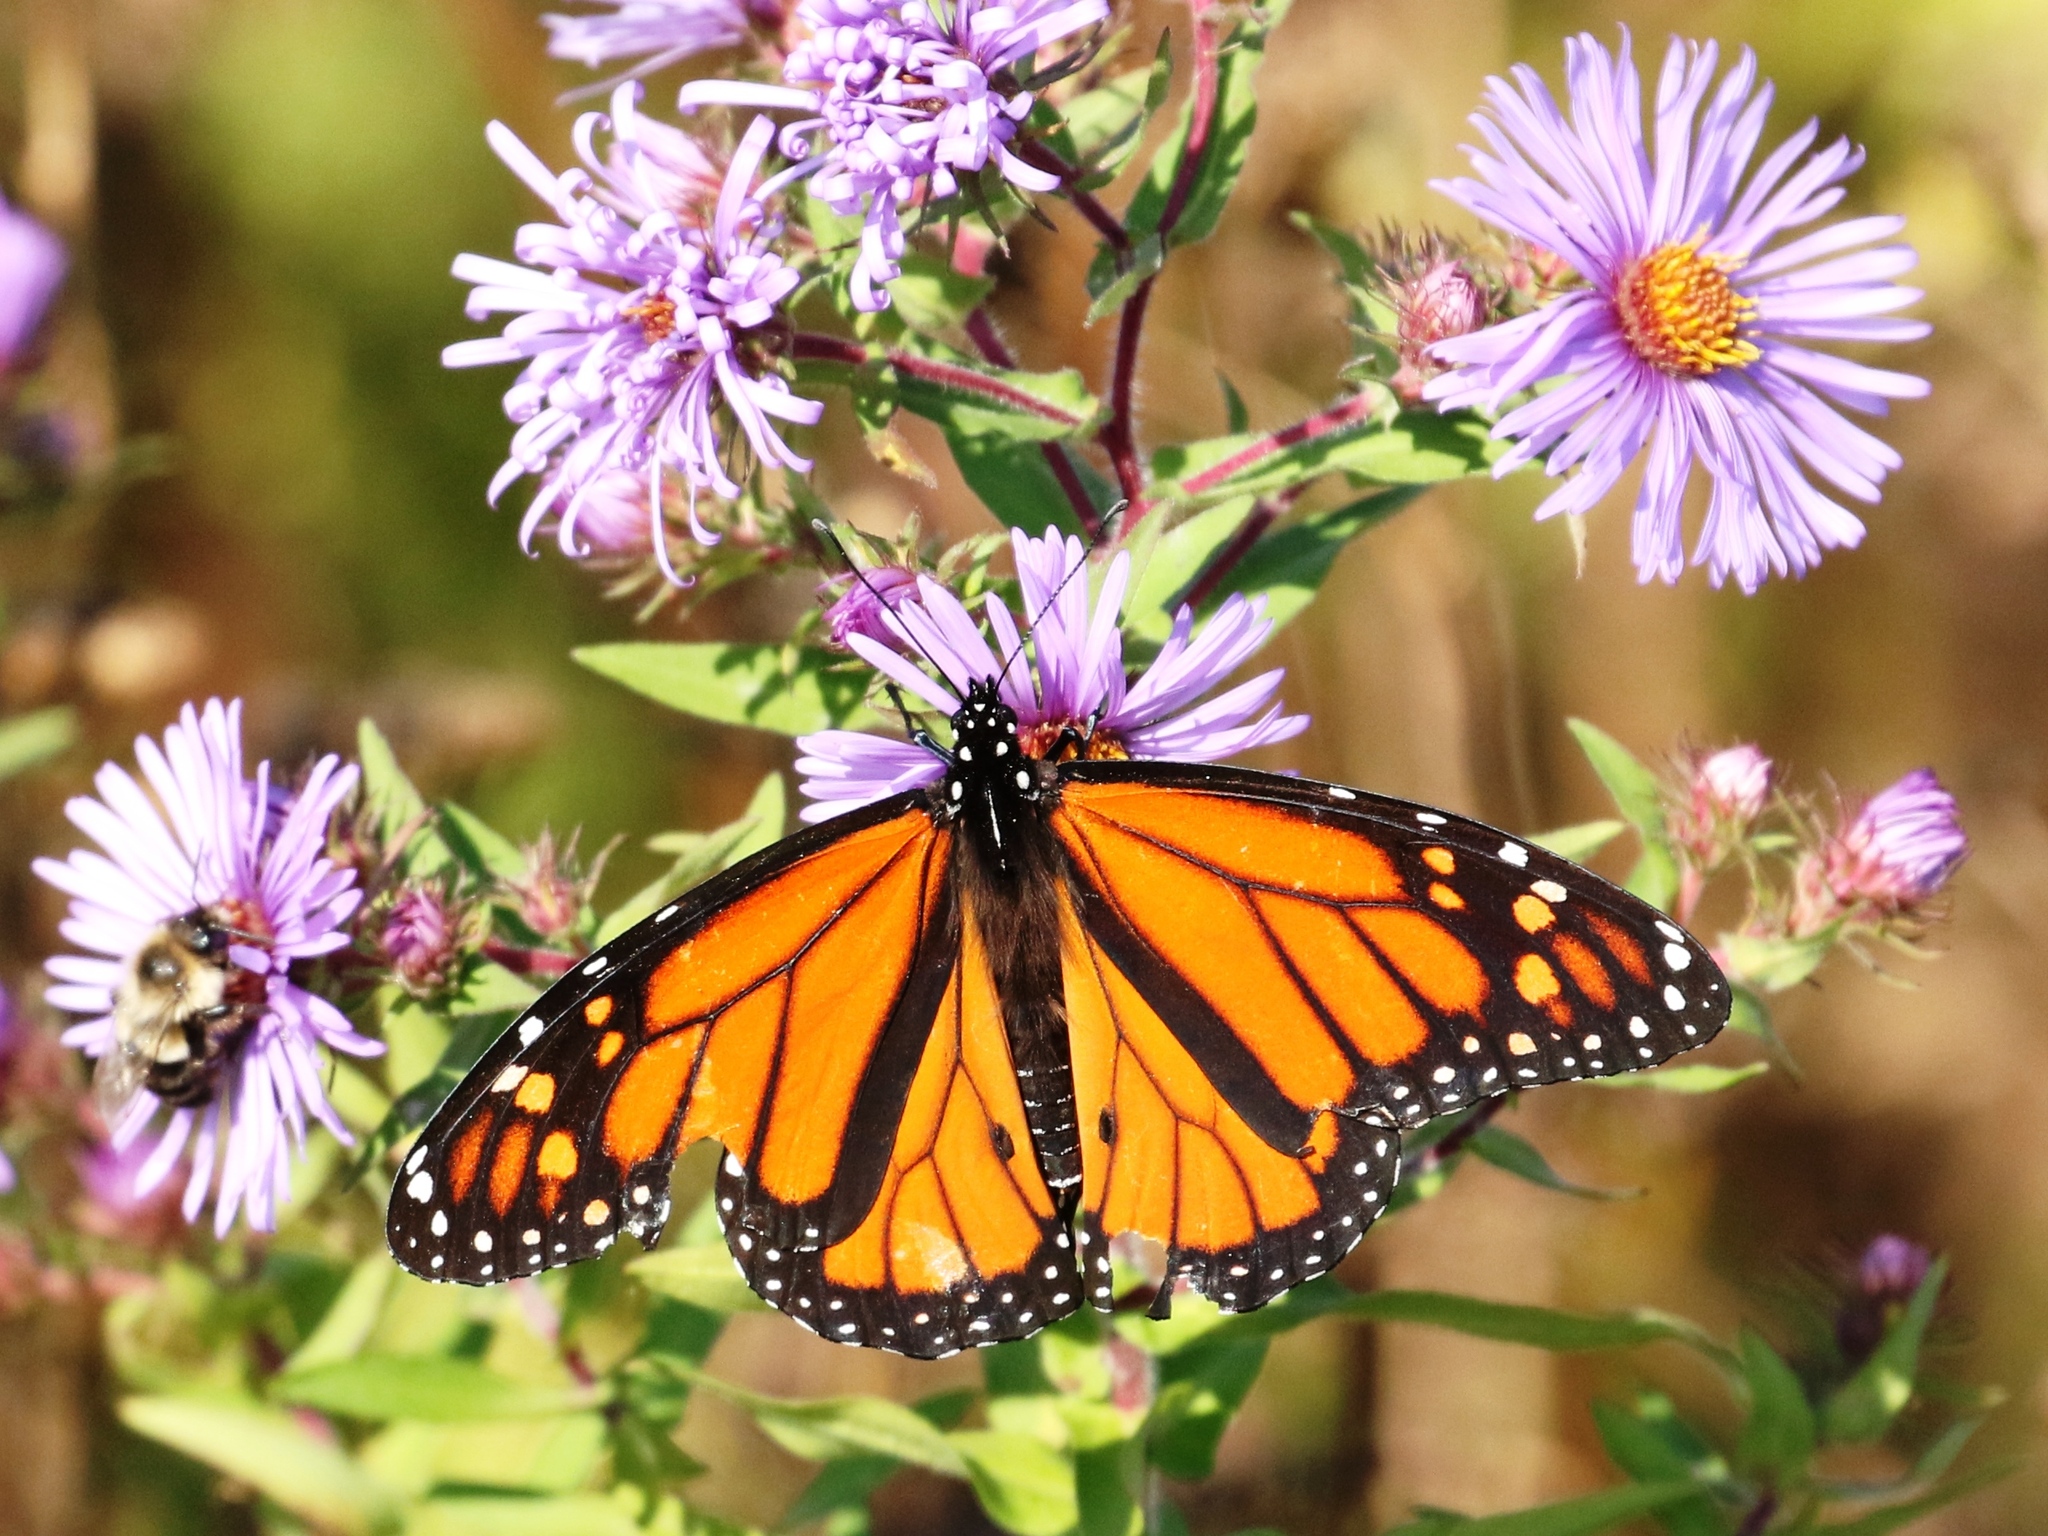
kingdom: Animalia
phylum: Arthropoda
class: Insecta
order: Lepidoptera
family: Nymphalidae
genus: Danaus
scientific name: Danaus plexippus
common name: Monarch
